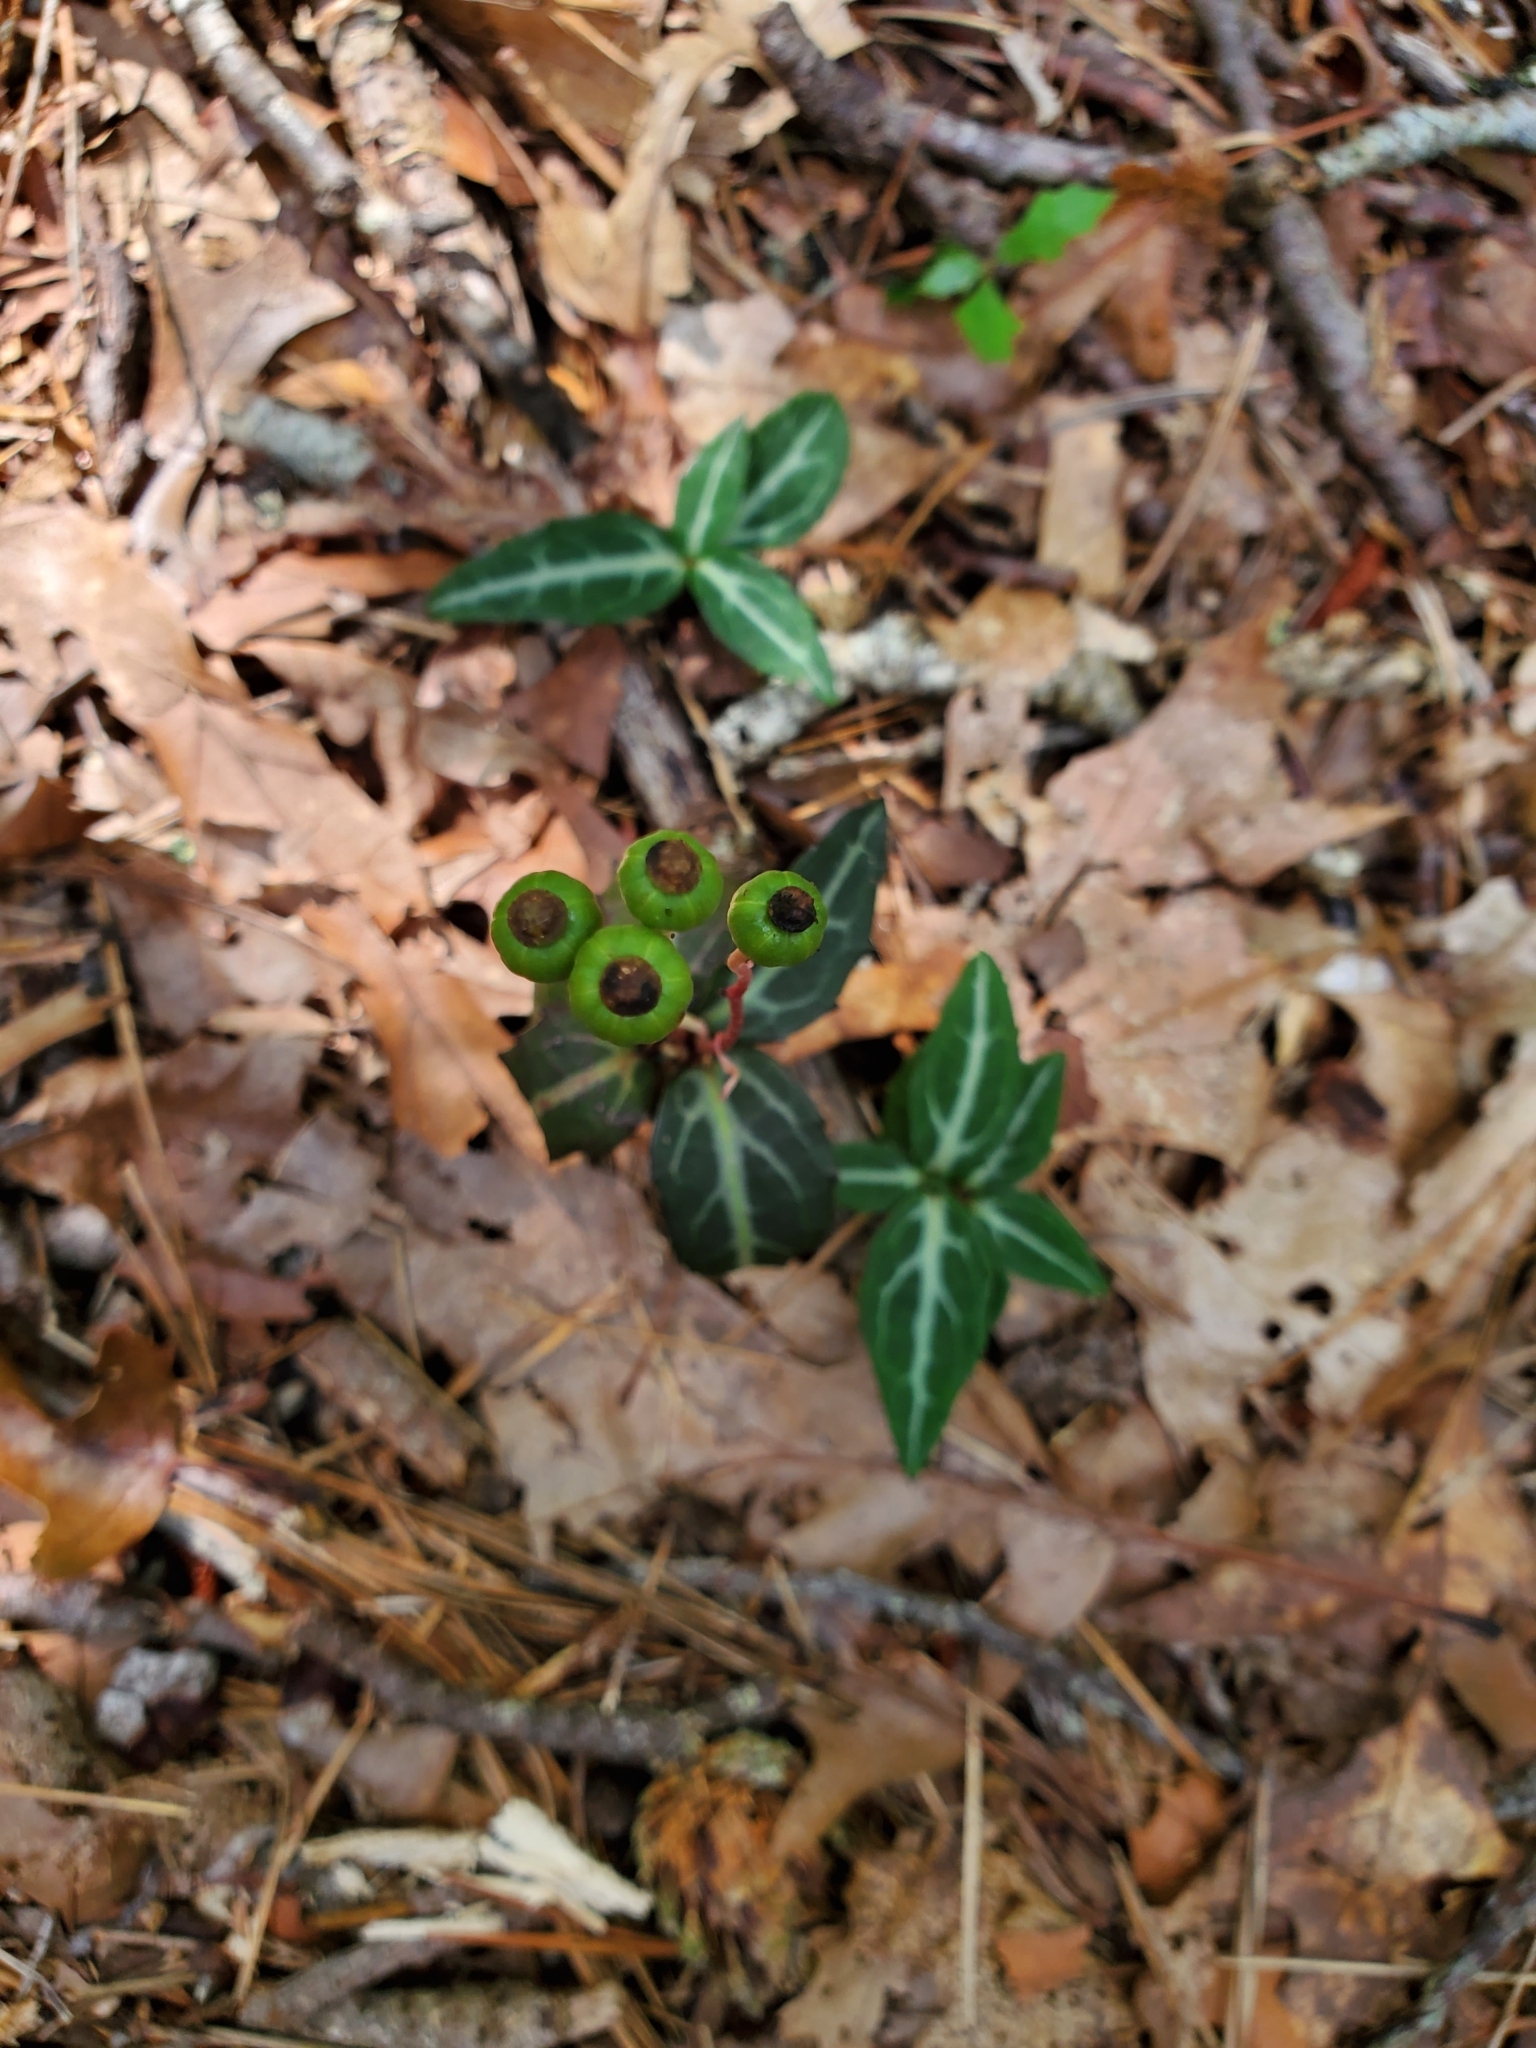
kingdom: Plantae
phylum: Tracheophyta
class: Magnoliopsida
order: Ericales
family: Ericaceae
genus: Chimaphila
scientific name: Chimaphila maculata
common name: Spotted pipsissewa
